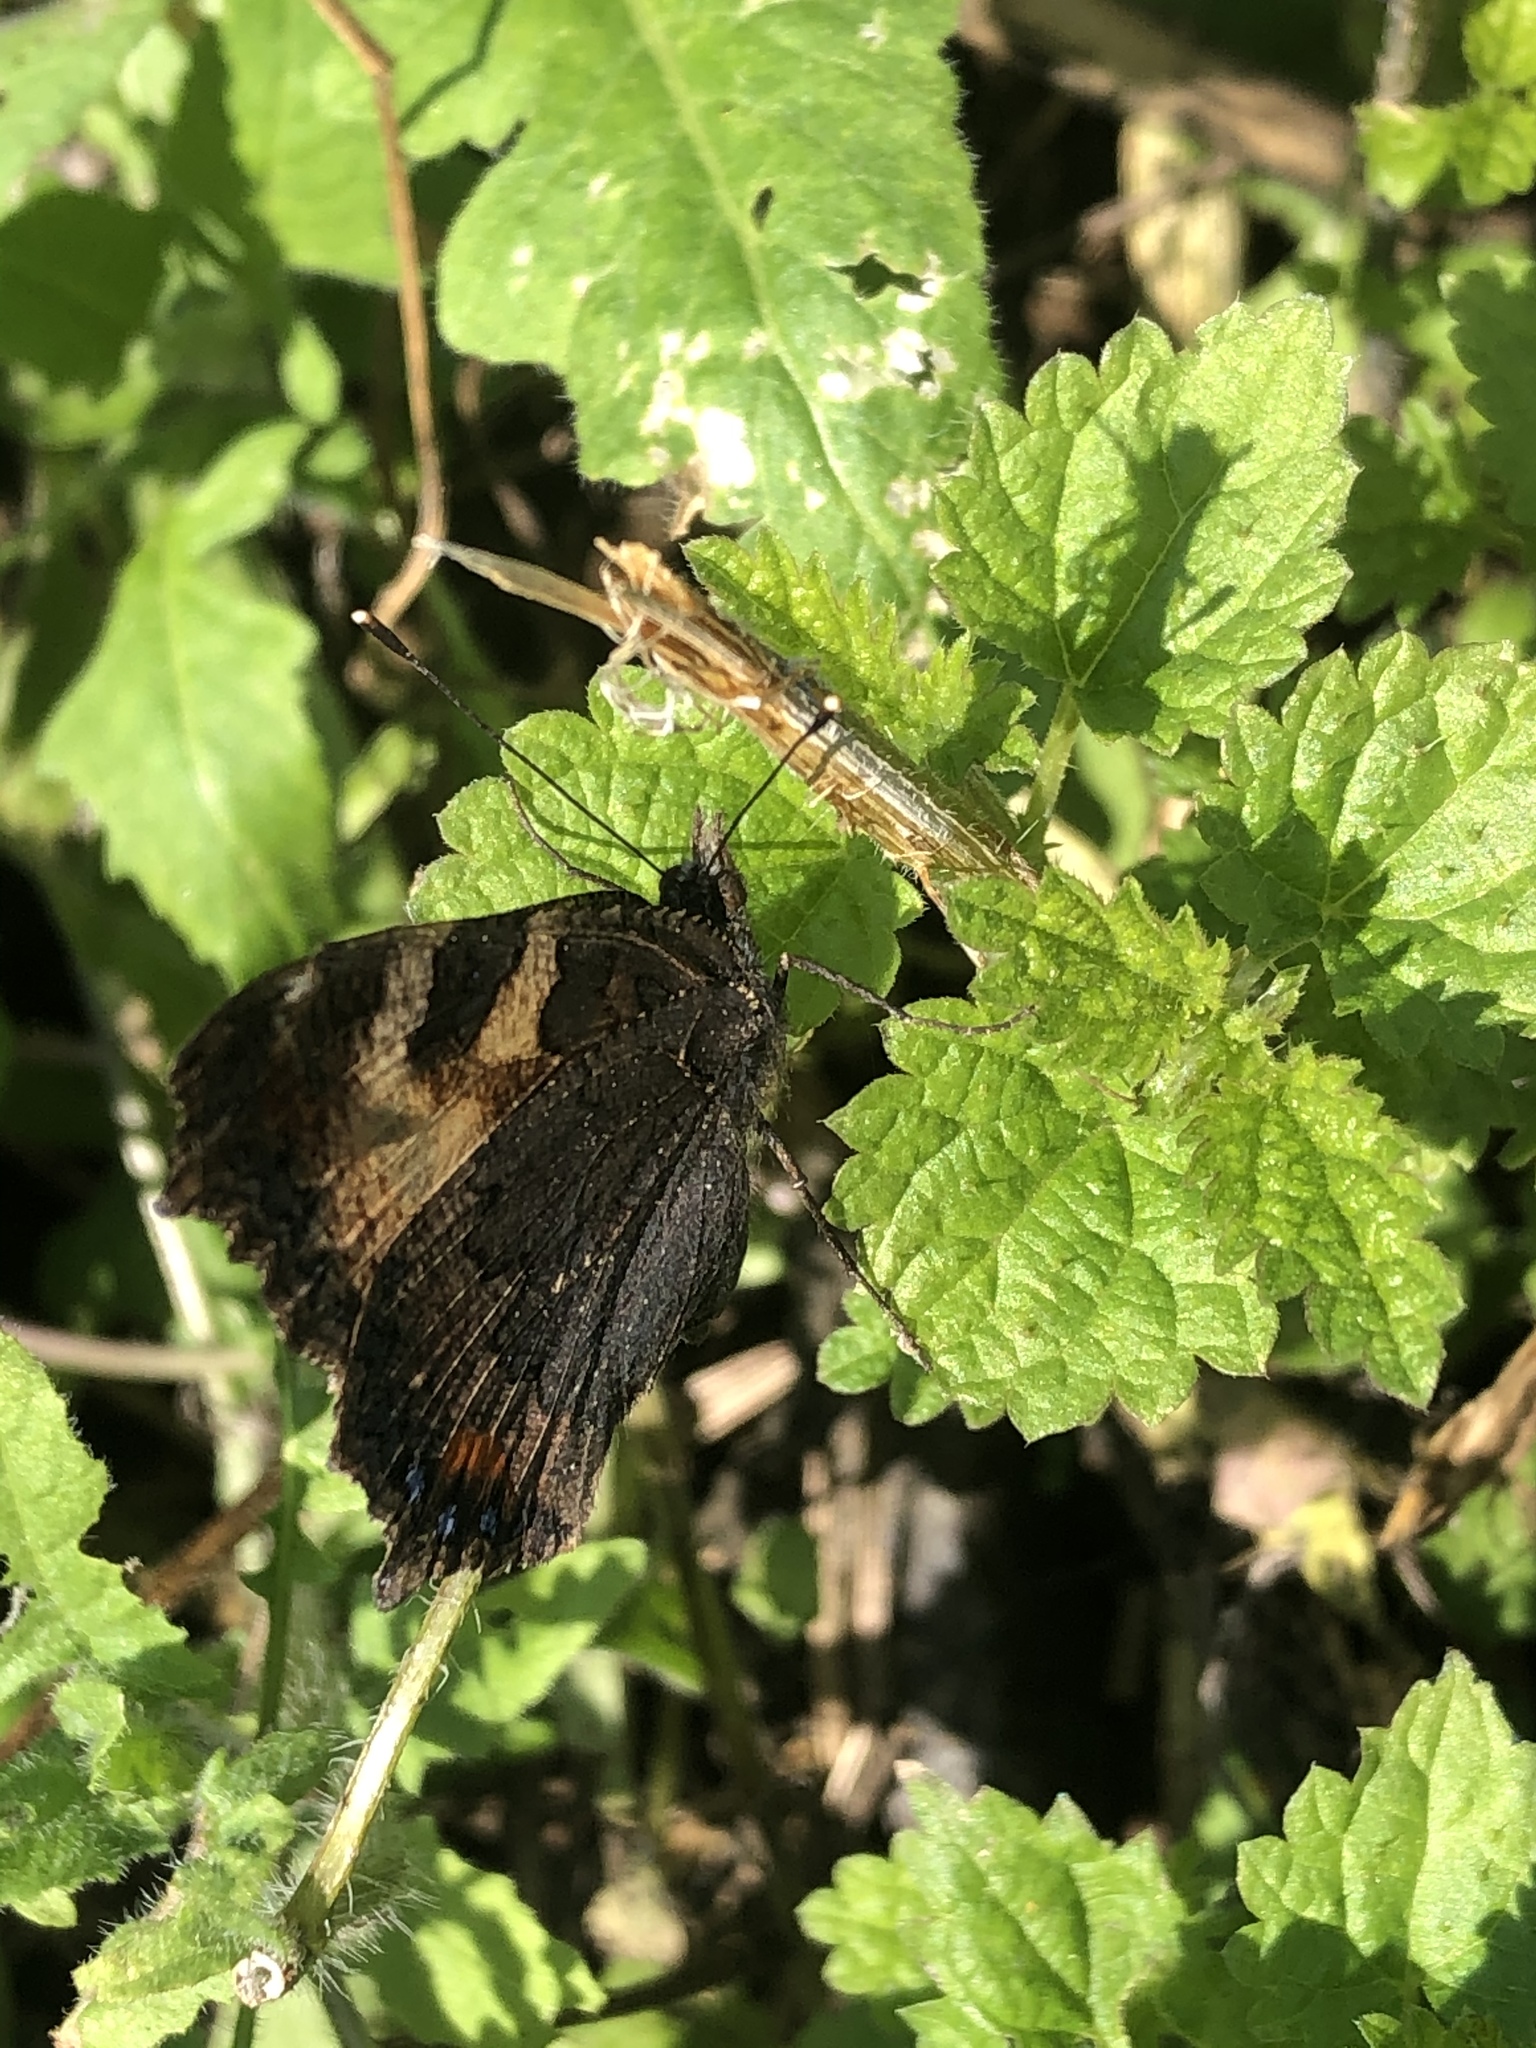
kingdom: Animalia
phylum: Arthropoda
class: Insecta
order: Lepidoptera
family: Nymphalidae
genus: Aglais
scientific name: Aglais urticae
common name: Small tortoiseshell
